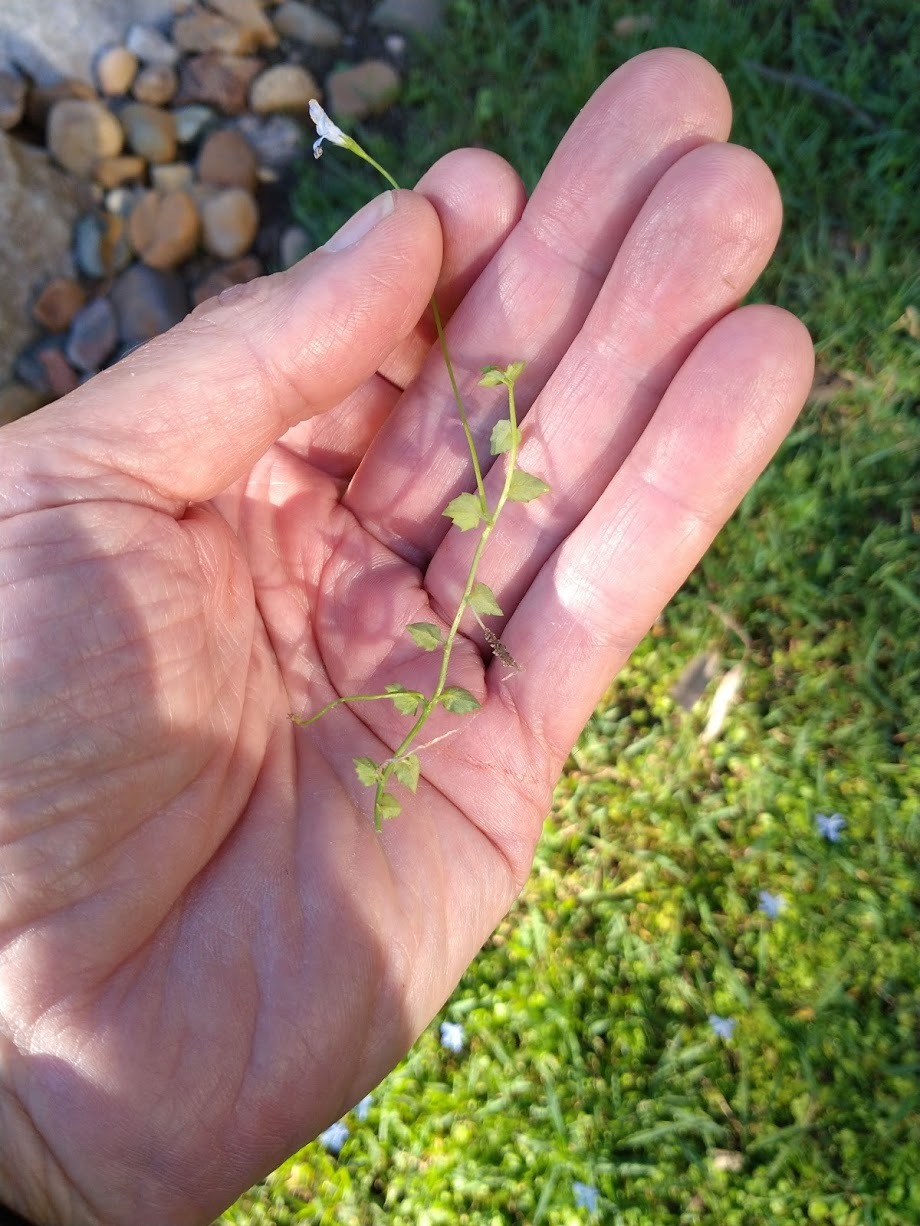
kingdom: Plantae
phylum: Tracheophyta
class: Magnoliopsida
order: Asterales
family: Campanulaceae
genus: Lobelia
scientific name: Lobelia quadrangularis
